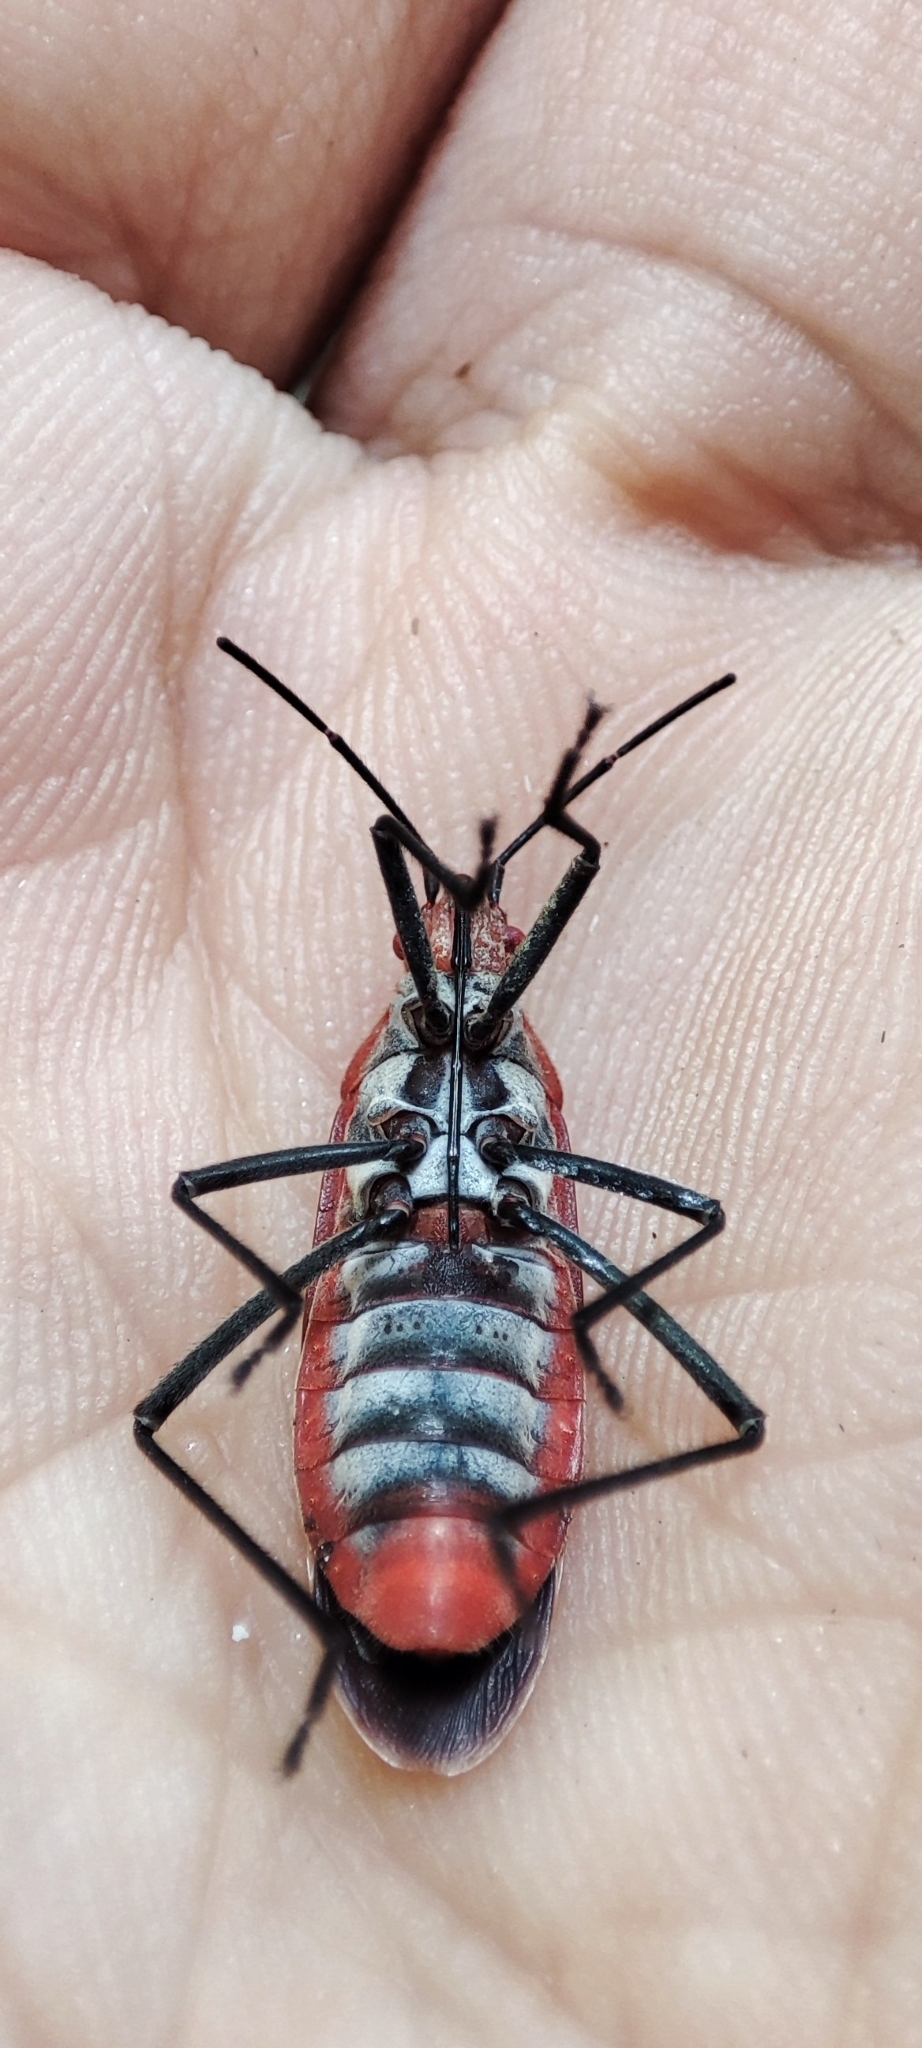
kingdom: Animalia
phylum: Arthropoda
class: Insecta
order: Hemiptera
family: Rhopalidae
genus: Leptocoris
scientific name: Leptocoris vicinus
